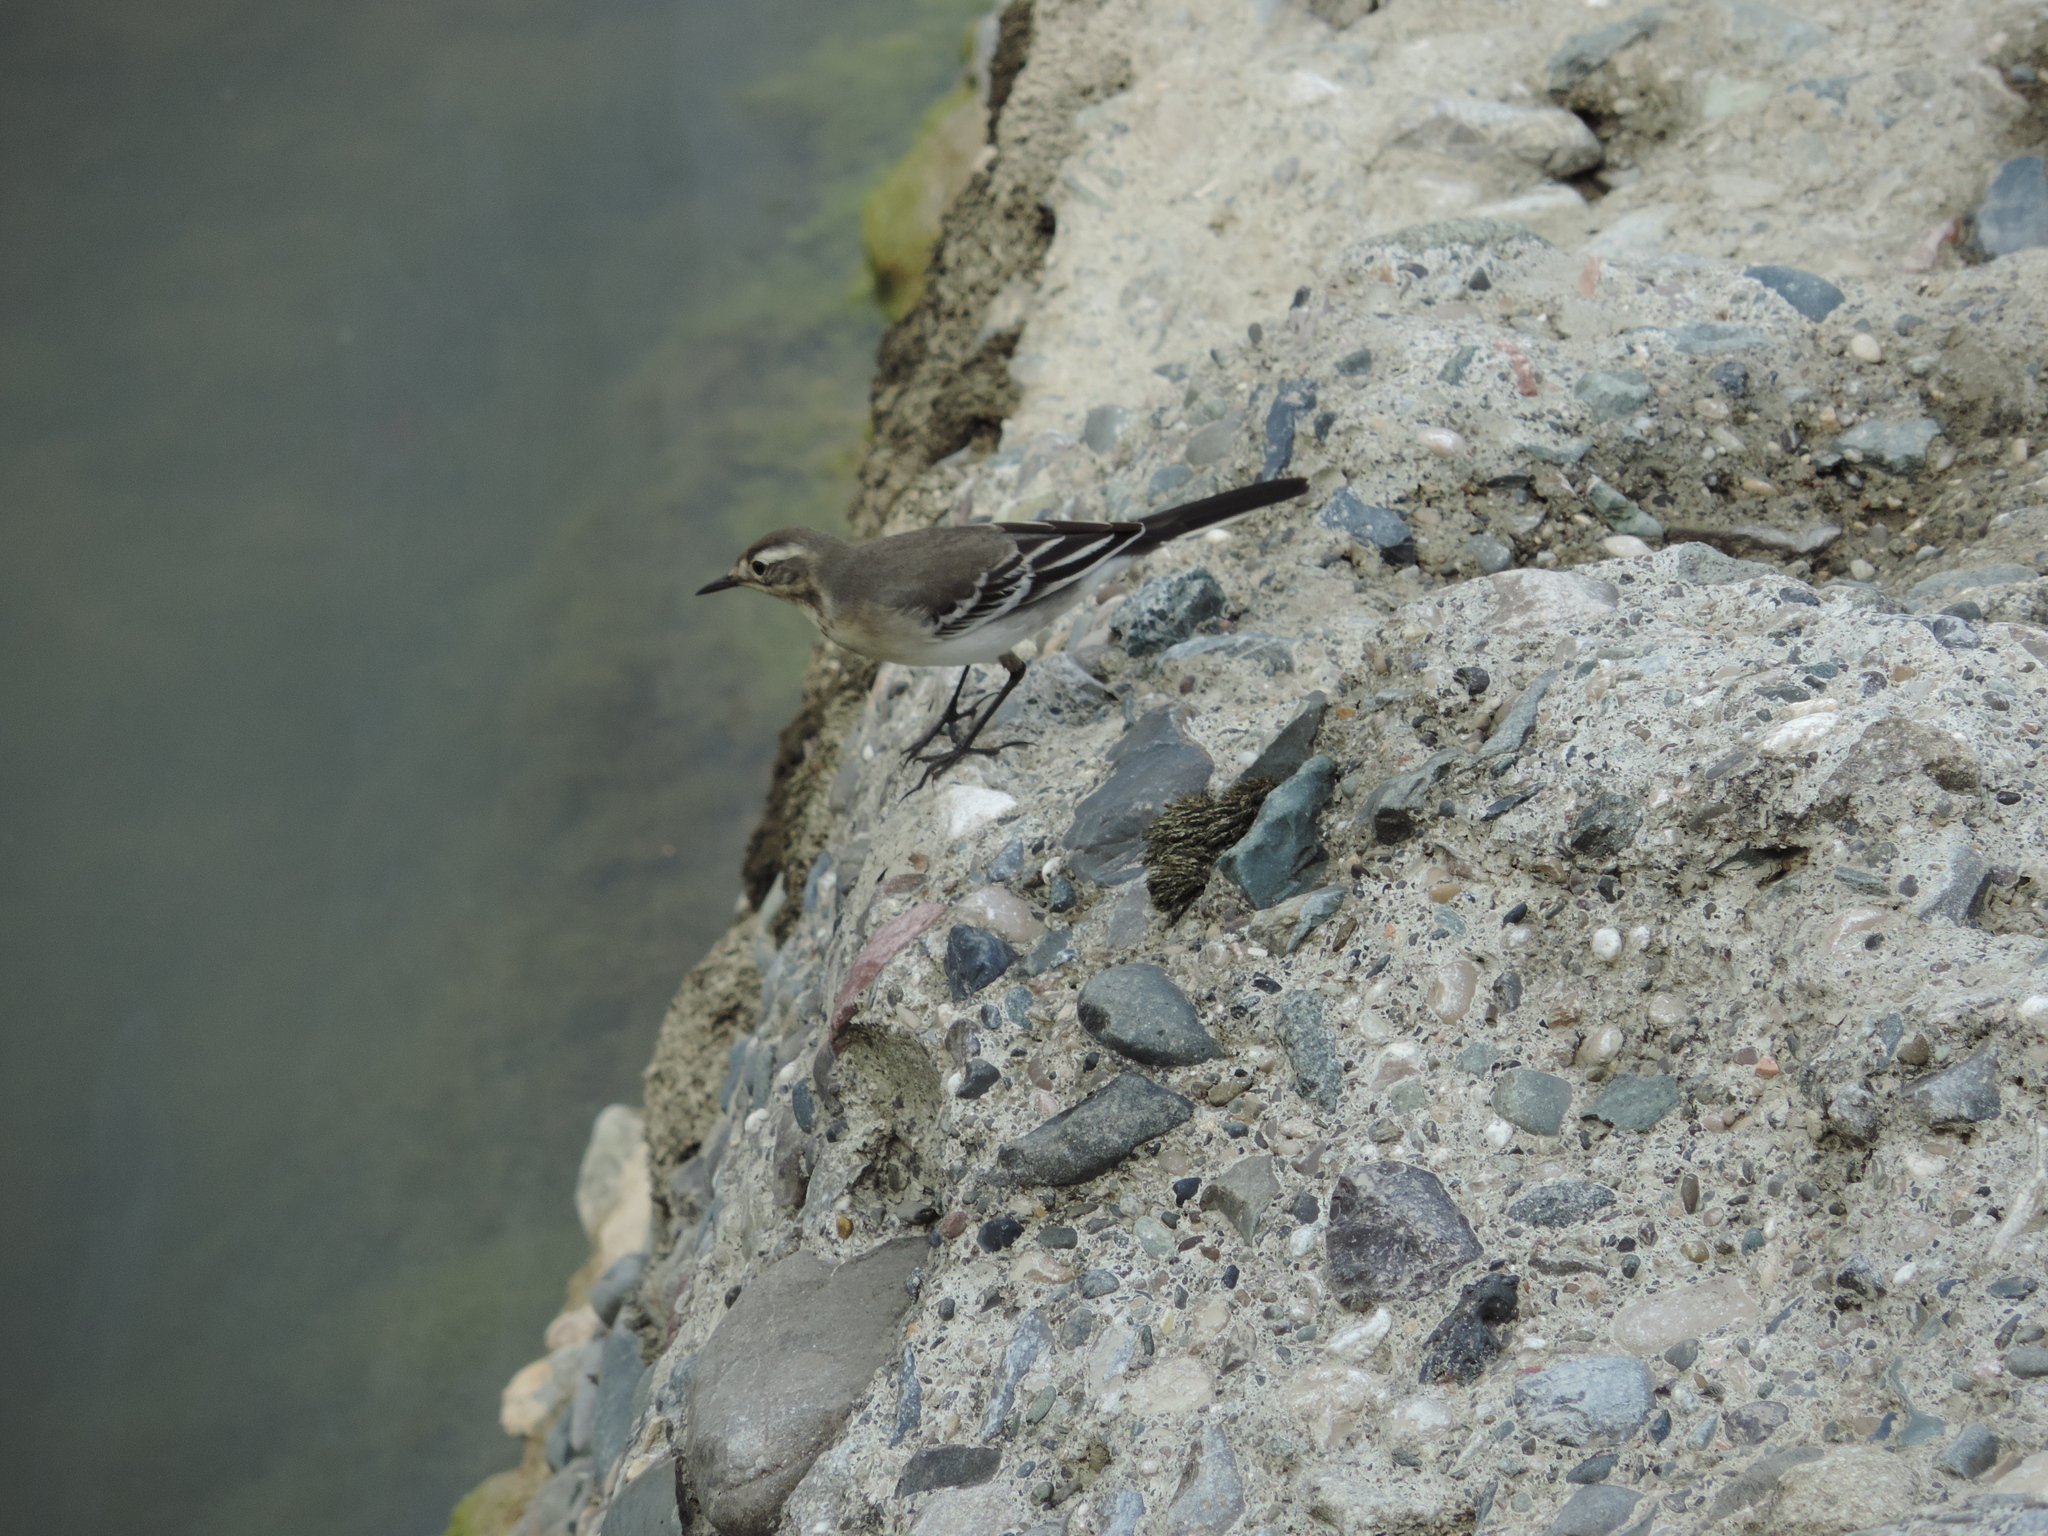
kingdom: Animalia
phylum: Chordata
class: Aves
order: Passeriformes
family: Motacillidae
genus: Motacilla
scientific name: Motacilla alba
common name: White wagtail
